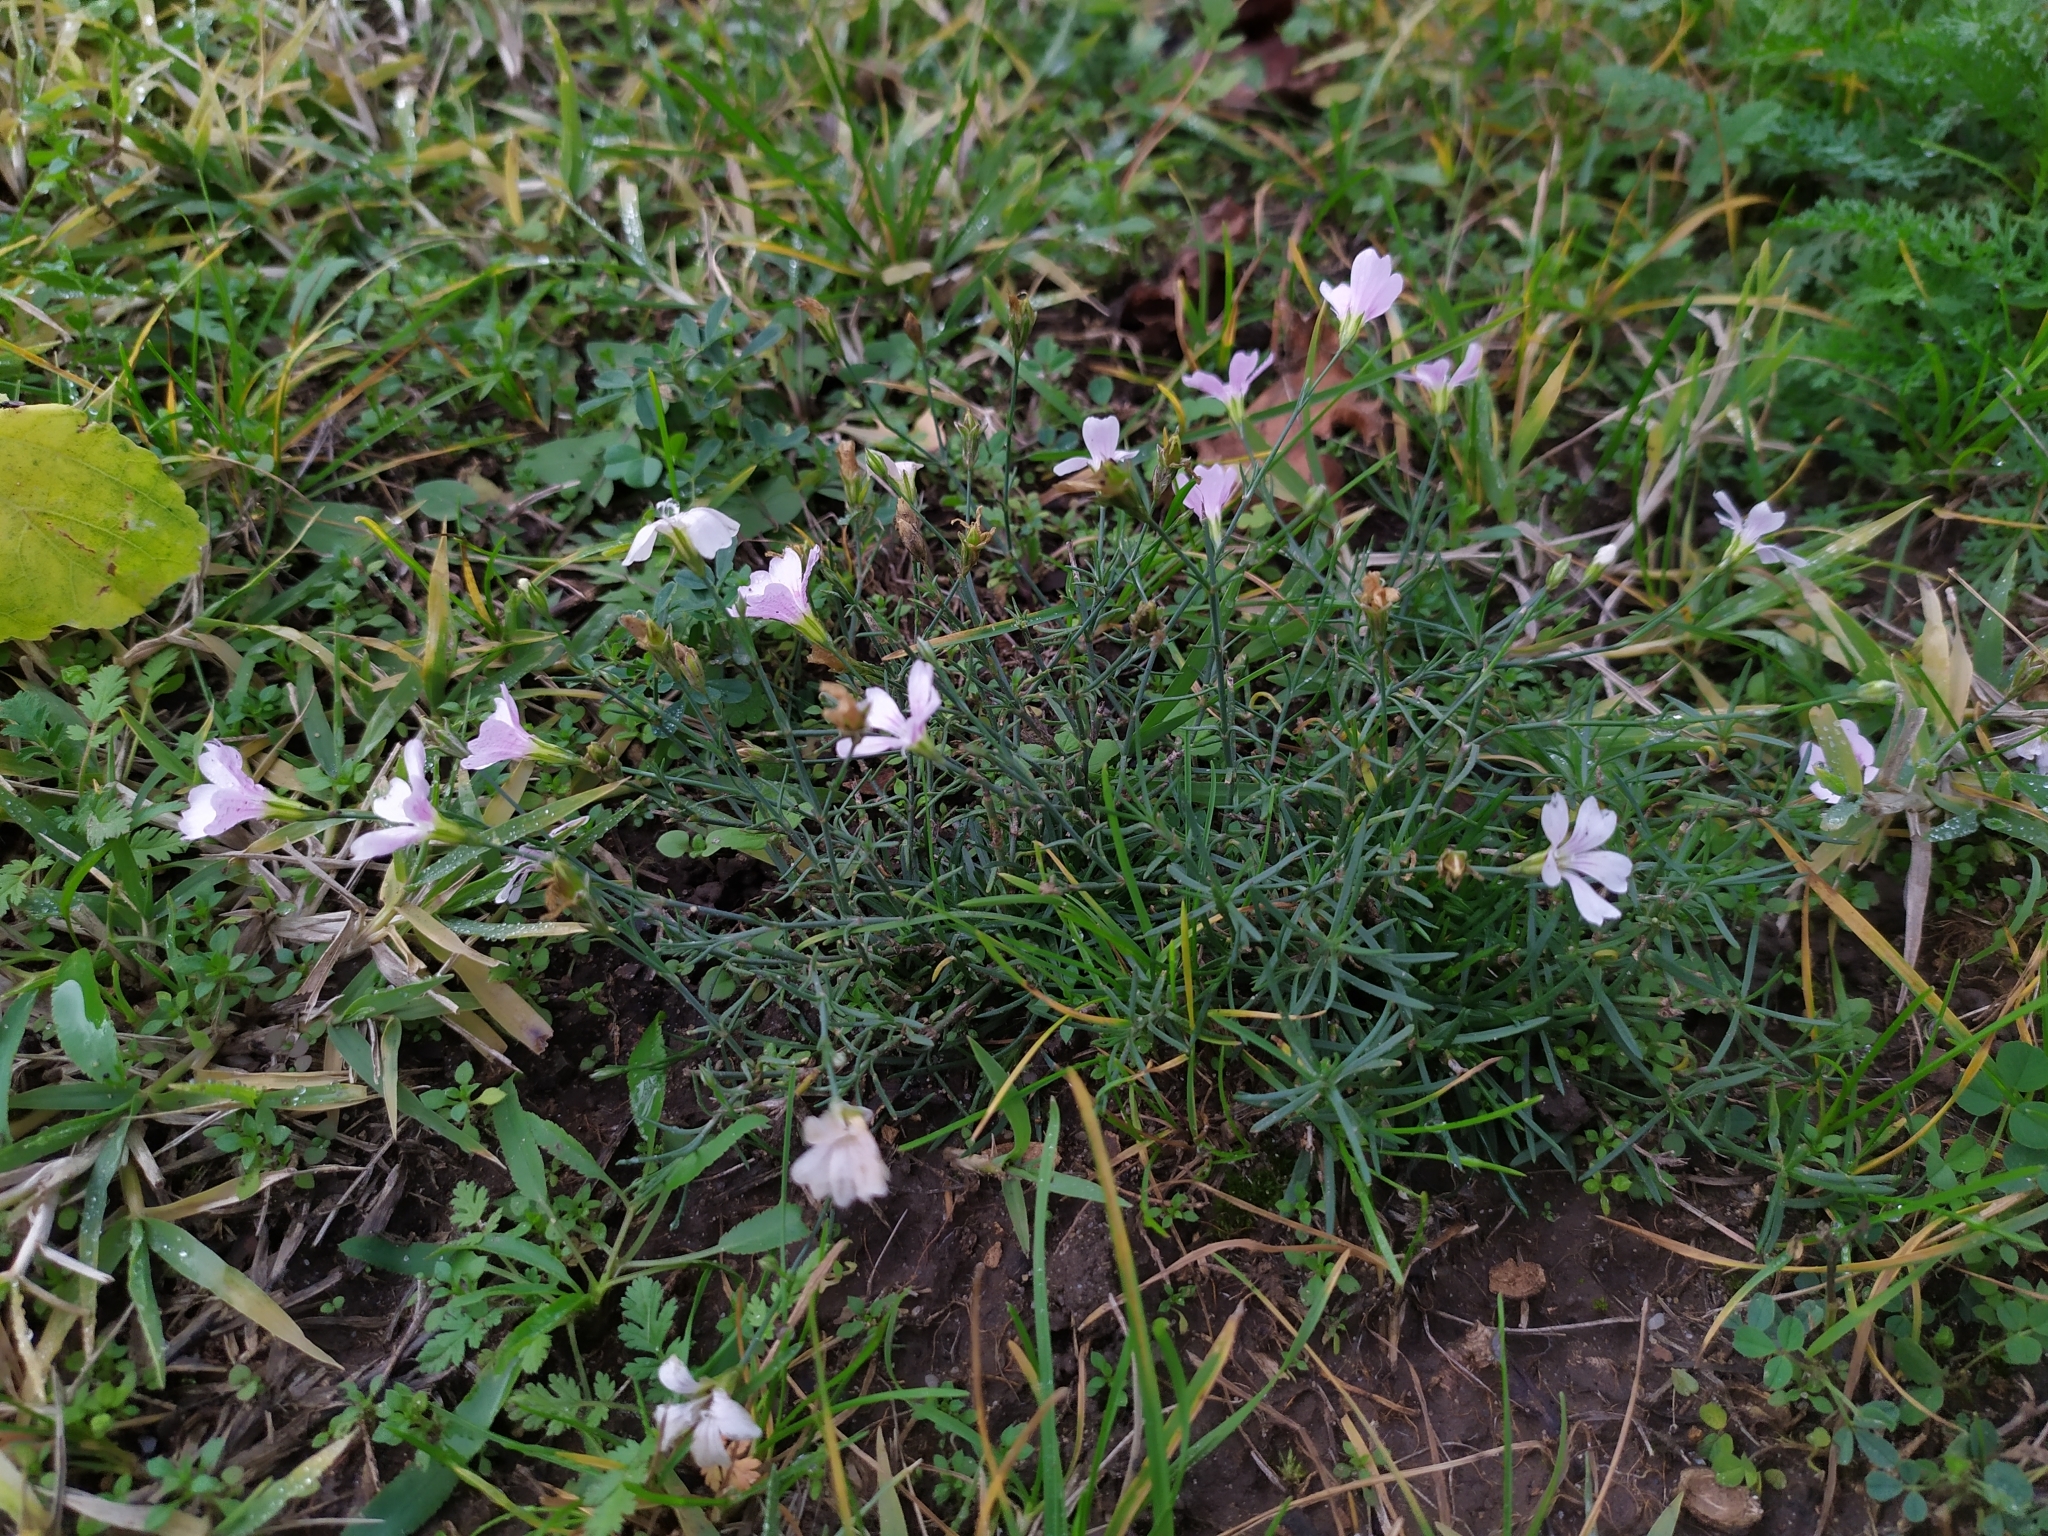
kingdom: Plantae
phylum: Tracheophyta
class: Magnoliopsida
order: Caryophyllales
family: Caryophyllaceae
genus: Petrorhagia
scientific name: Petrorhagia saxifraga
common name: Tunicflower
